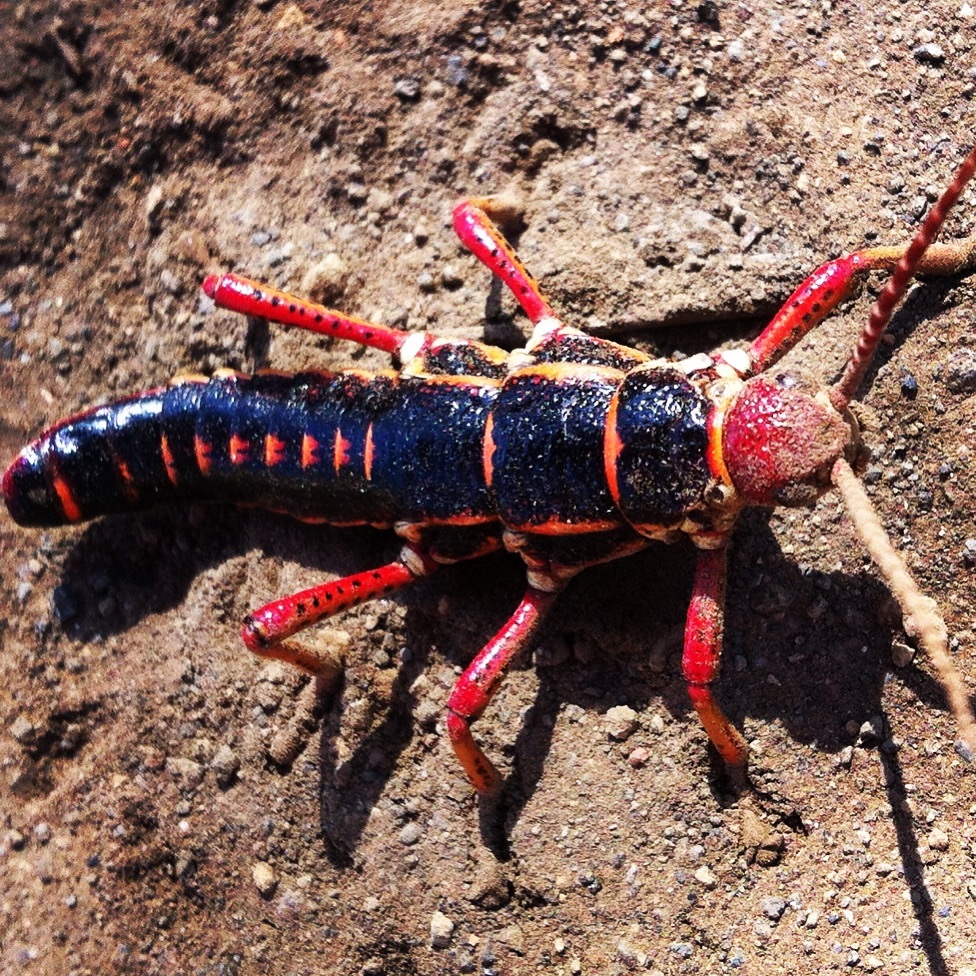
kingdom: Animalia
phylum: Arthropoda
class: Insecta
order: Phasmida
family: Agathemeridae
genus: Agathemera
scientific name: Agathemera elegans
